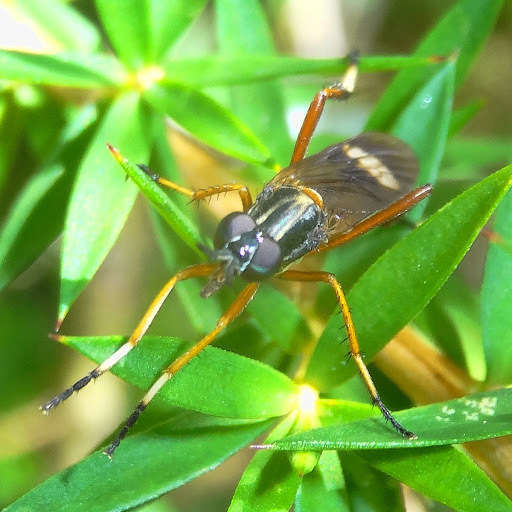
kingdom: Animalia
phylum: Arthropoda
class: Insecta
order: Diptera
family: Therevidae
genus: Evansomyia
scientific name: Evansomyia
